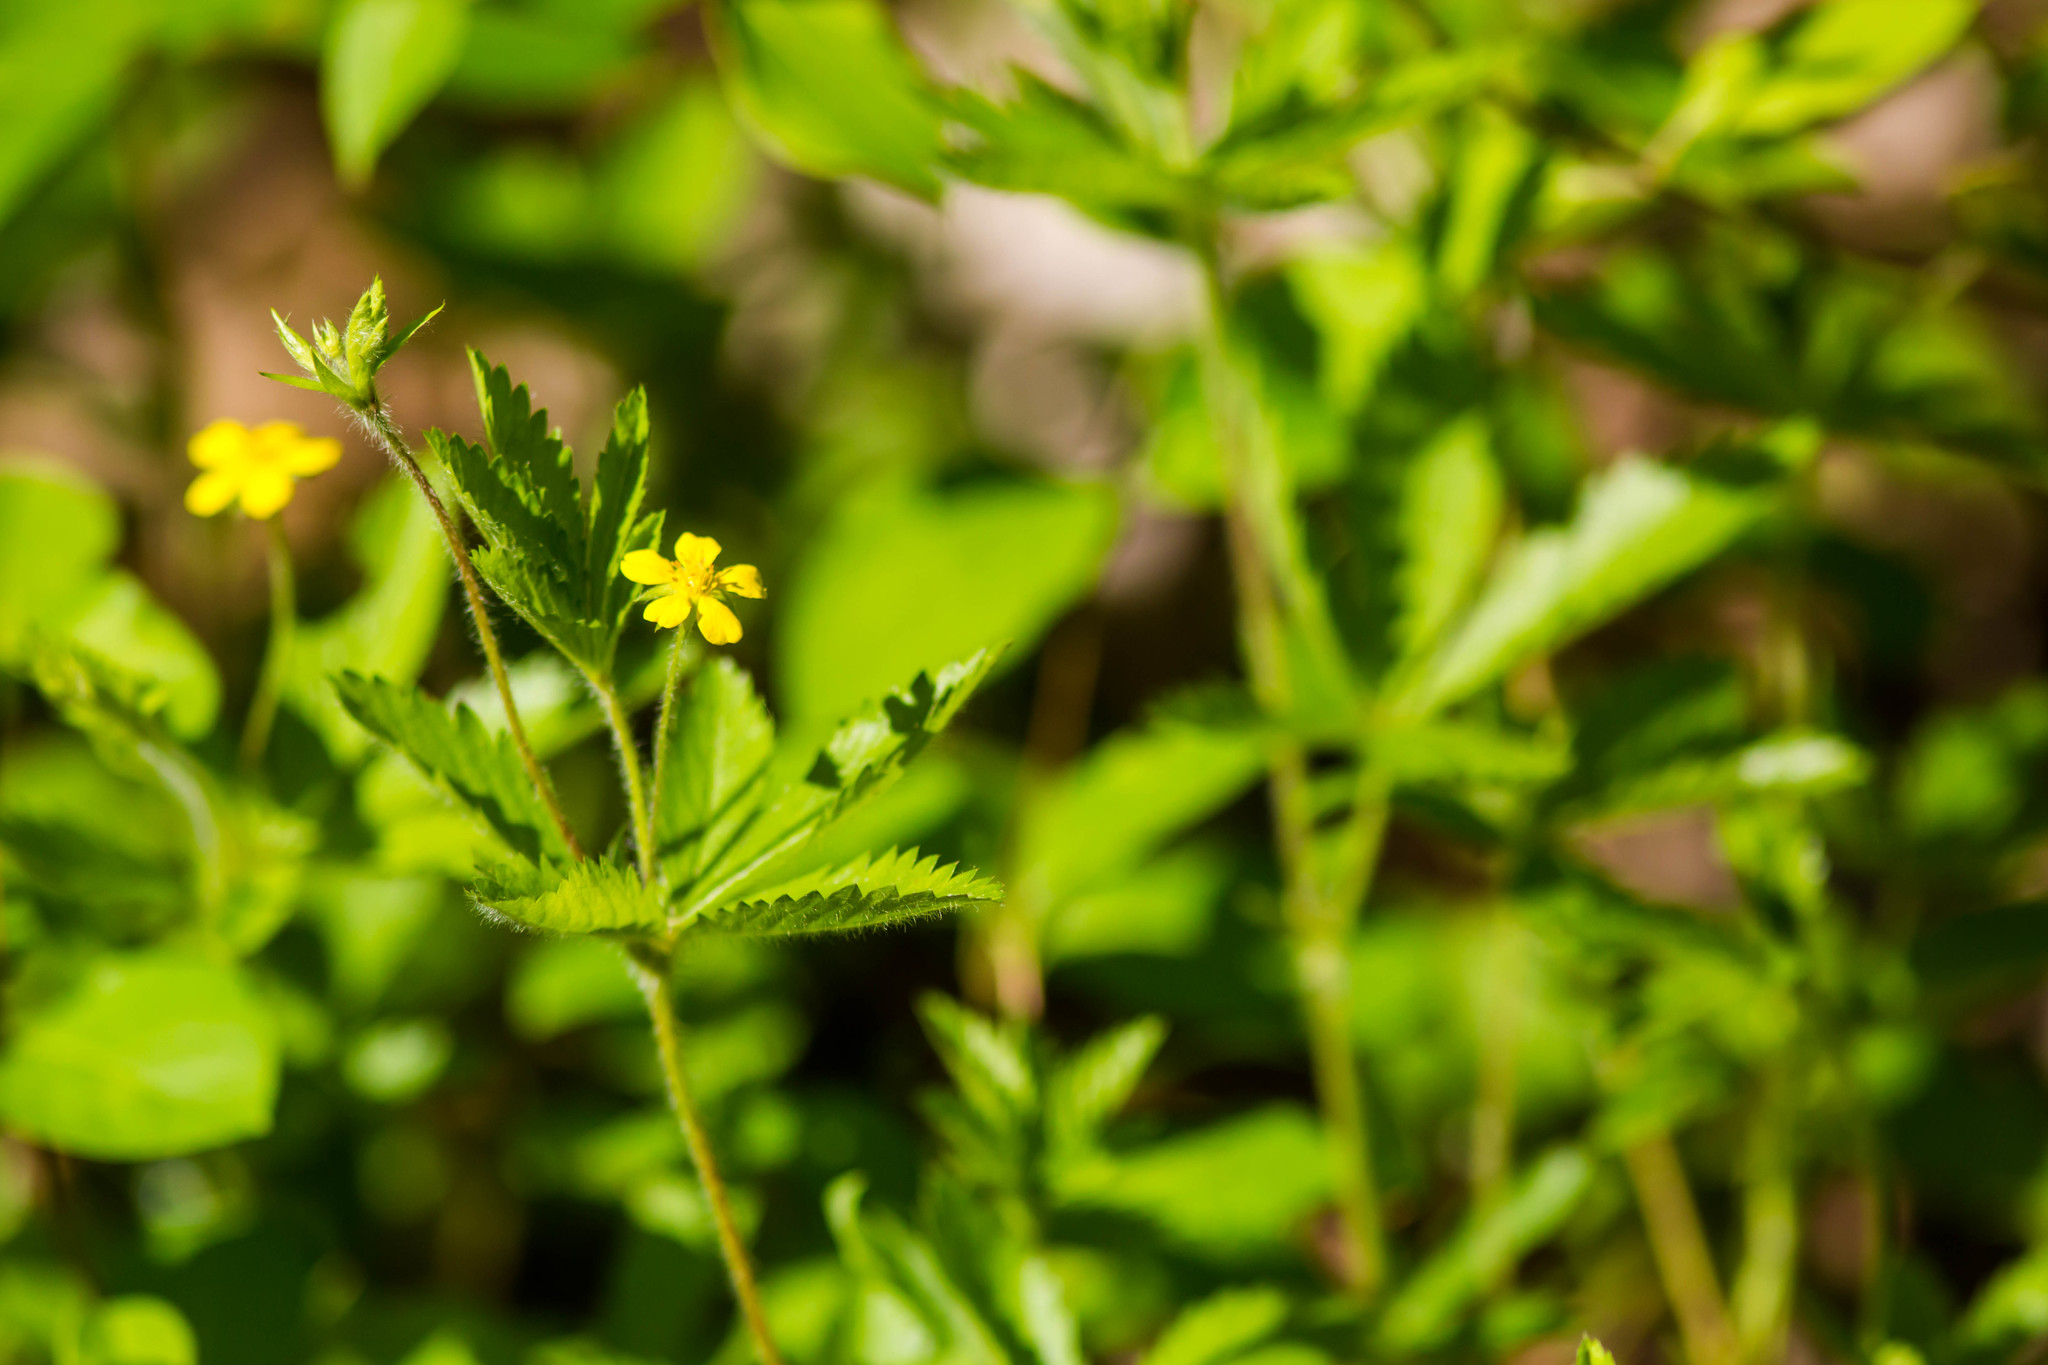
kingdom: Plantae
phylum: Tracheophyta
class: Magnoliopsida
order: Rosales
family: Rosaceae
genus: Potentilla
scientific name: Potentilla simplex
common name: Old field cinquefoil
